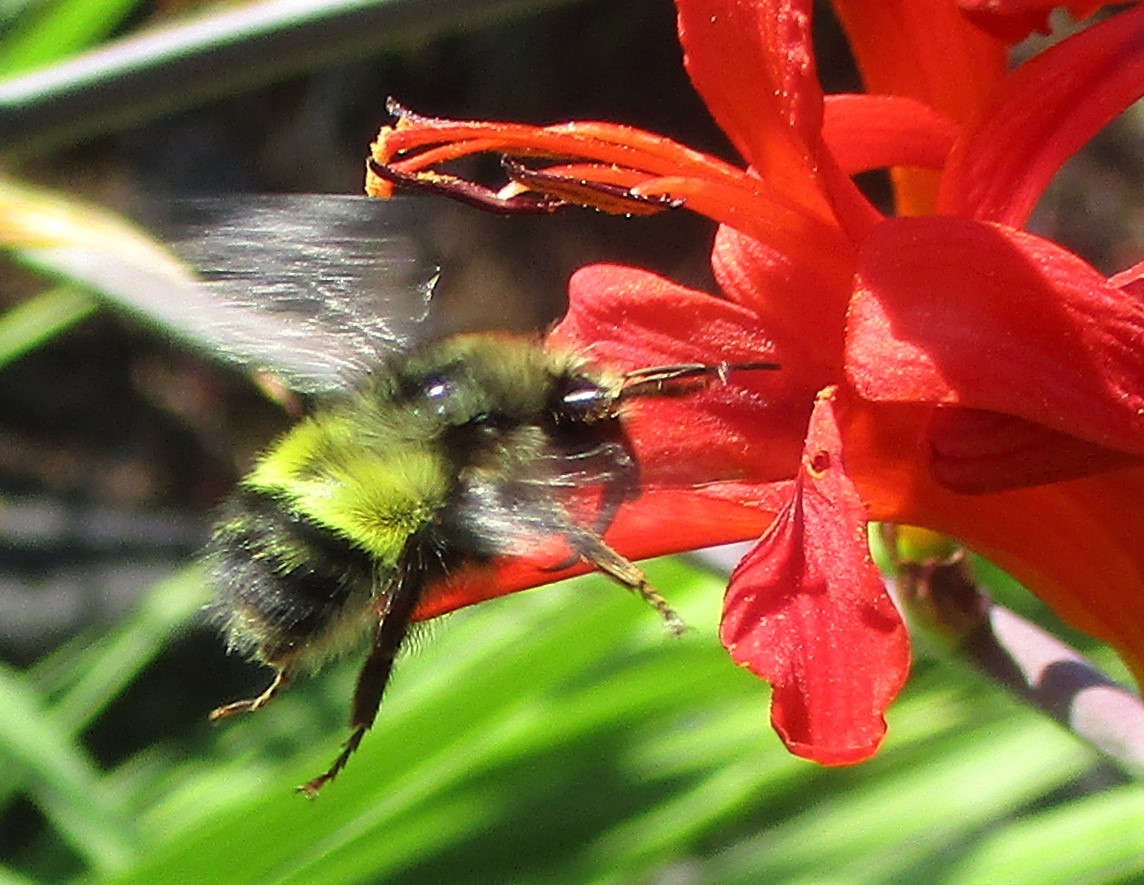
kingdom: Animalia
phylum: Arthropoda
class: Insecta
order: Hymenoptera
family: Apidae
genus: Bombus
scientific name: Bombus flavifrons
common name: Yellow head bumble bee
